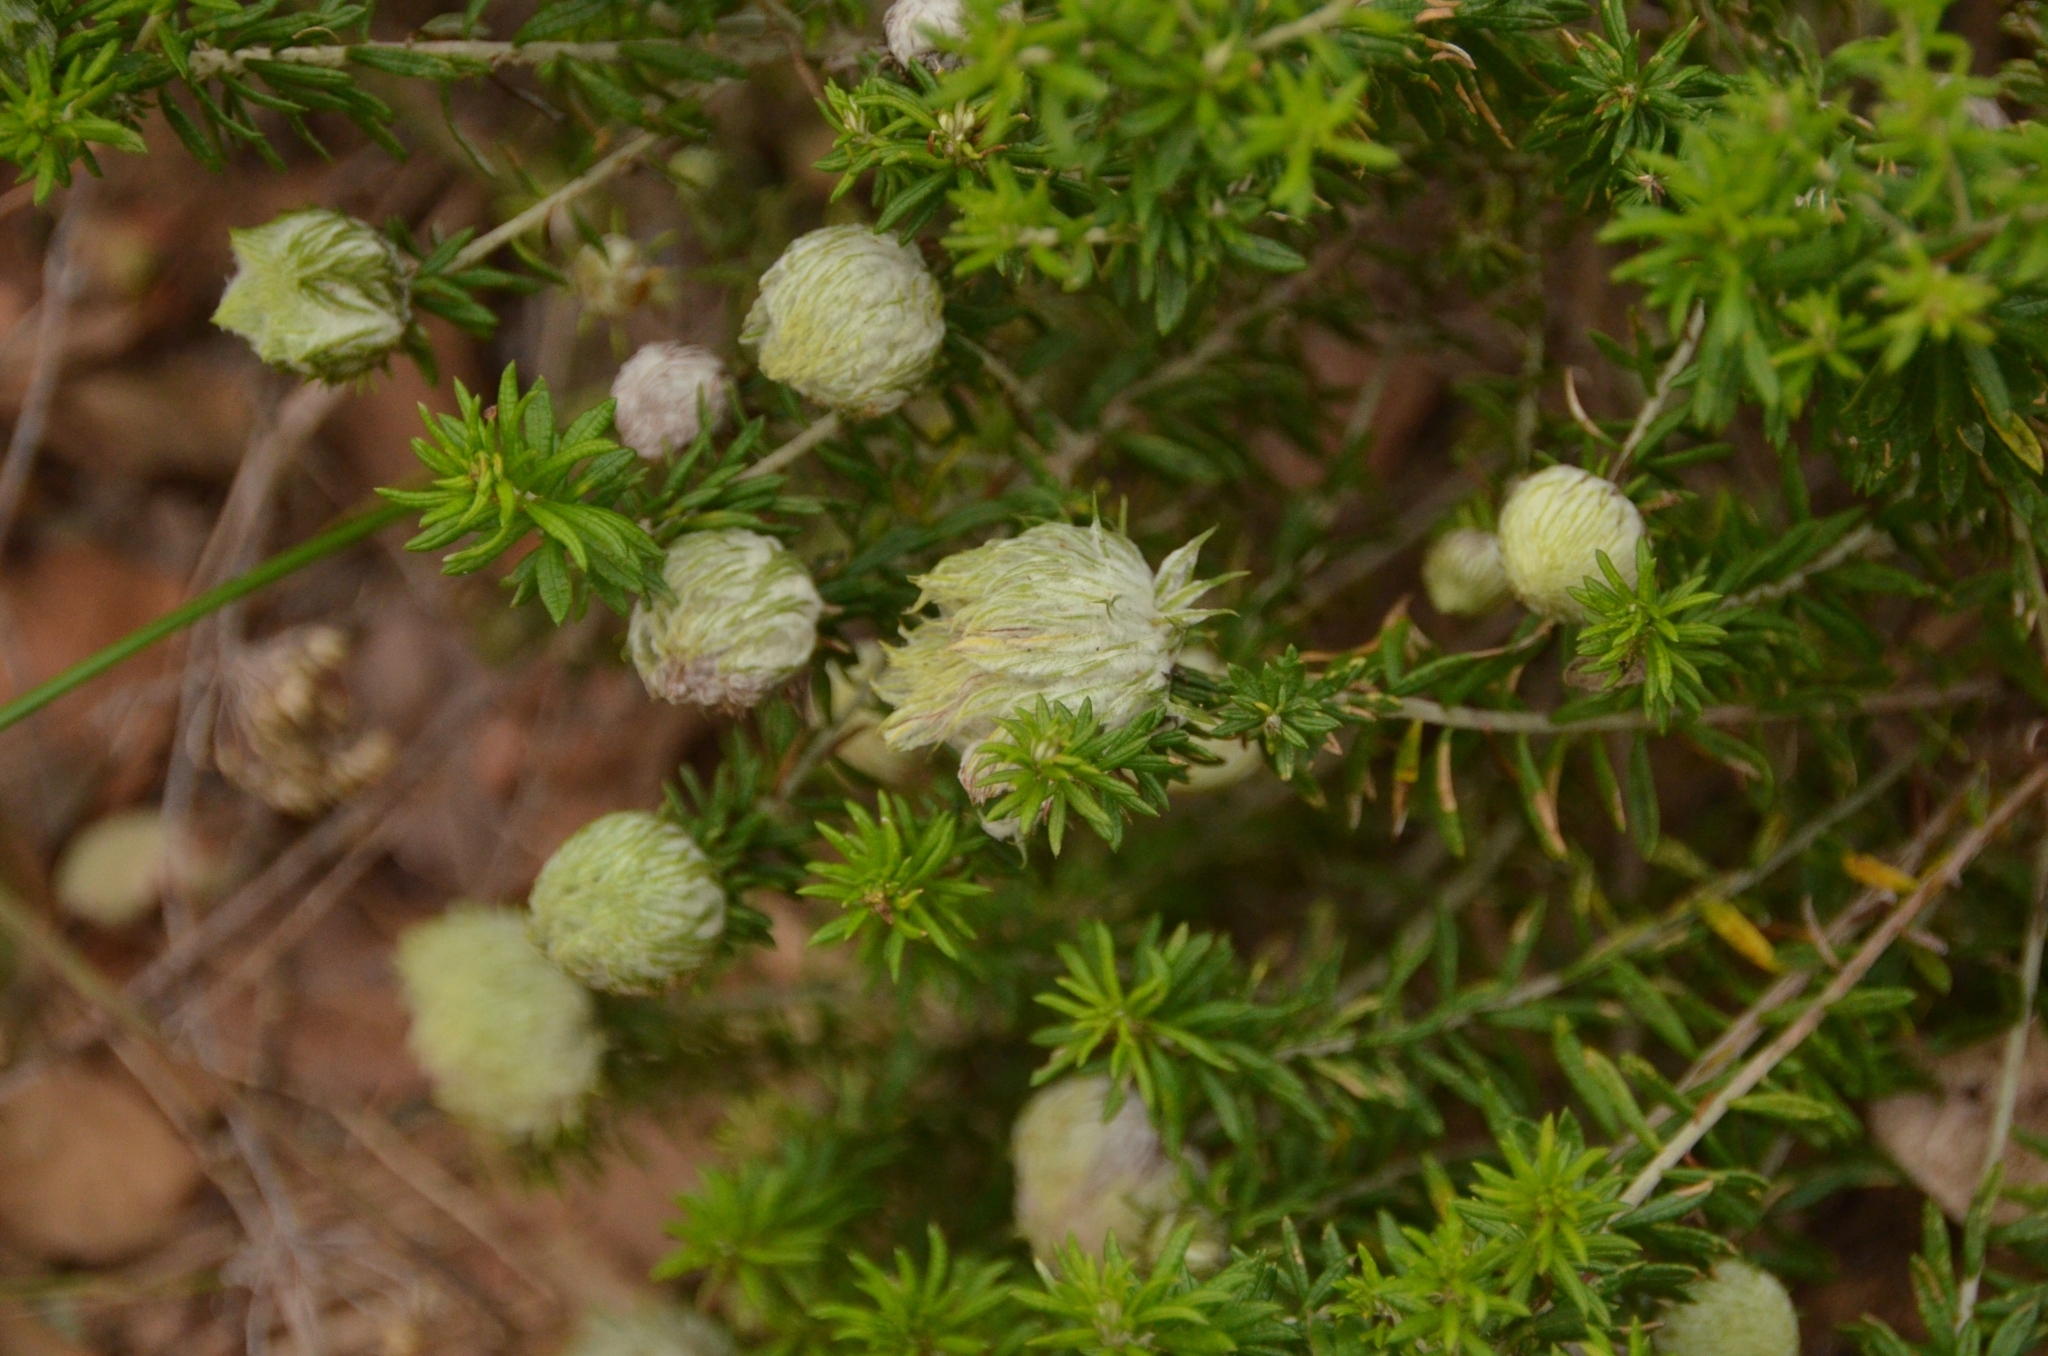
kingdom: Plantae
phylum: Tracheophyta
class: Magnoliopsida
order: Asterales
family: Asteraceae
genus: Helichrysum
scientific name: Helichrysum kraussii
